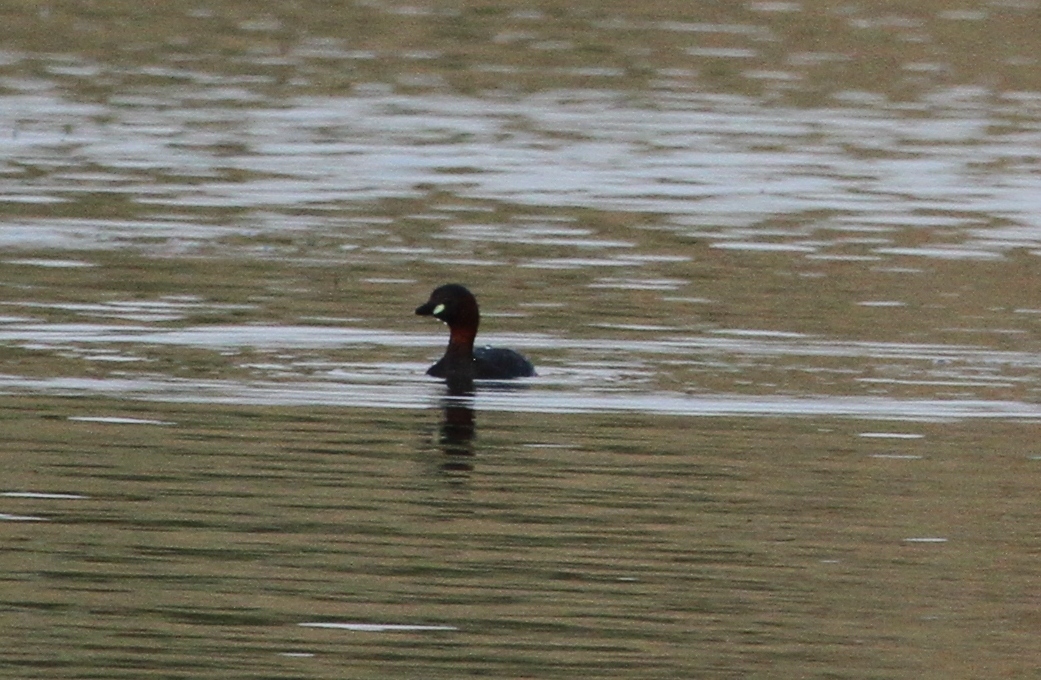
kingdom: Animalia
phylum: Chordata
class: Aves
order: Podicipediformes
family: Podicipedidae
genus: Tachybaptus
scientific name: Tachybaptus ruficollis
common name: Little grebe
